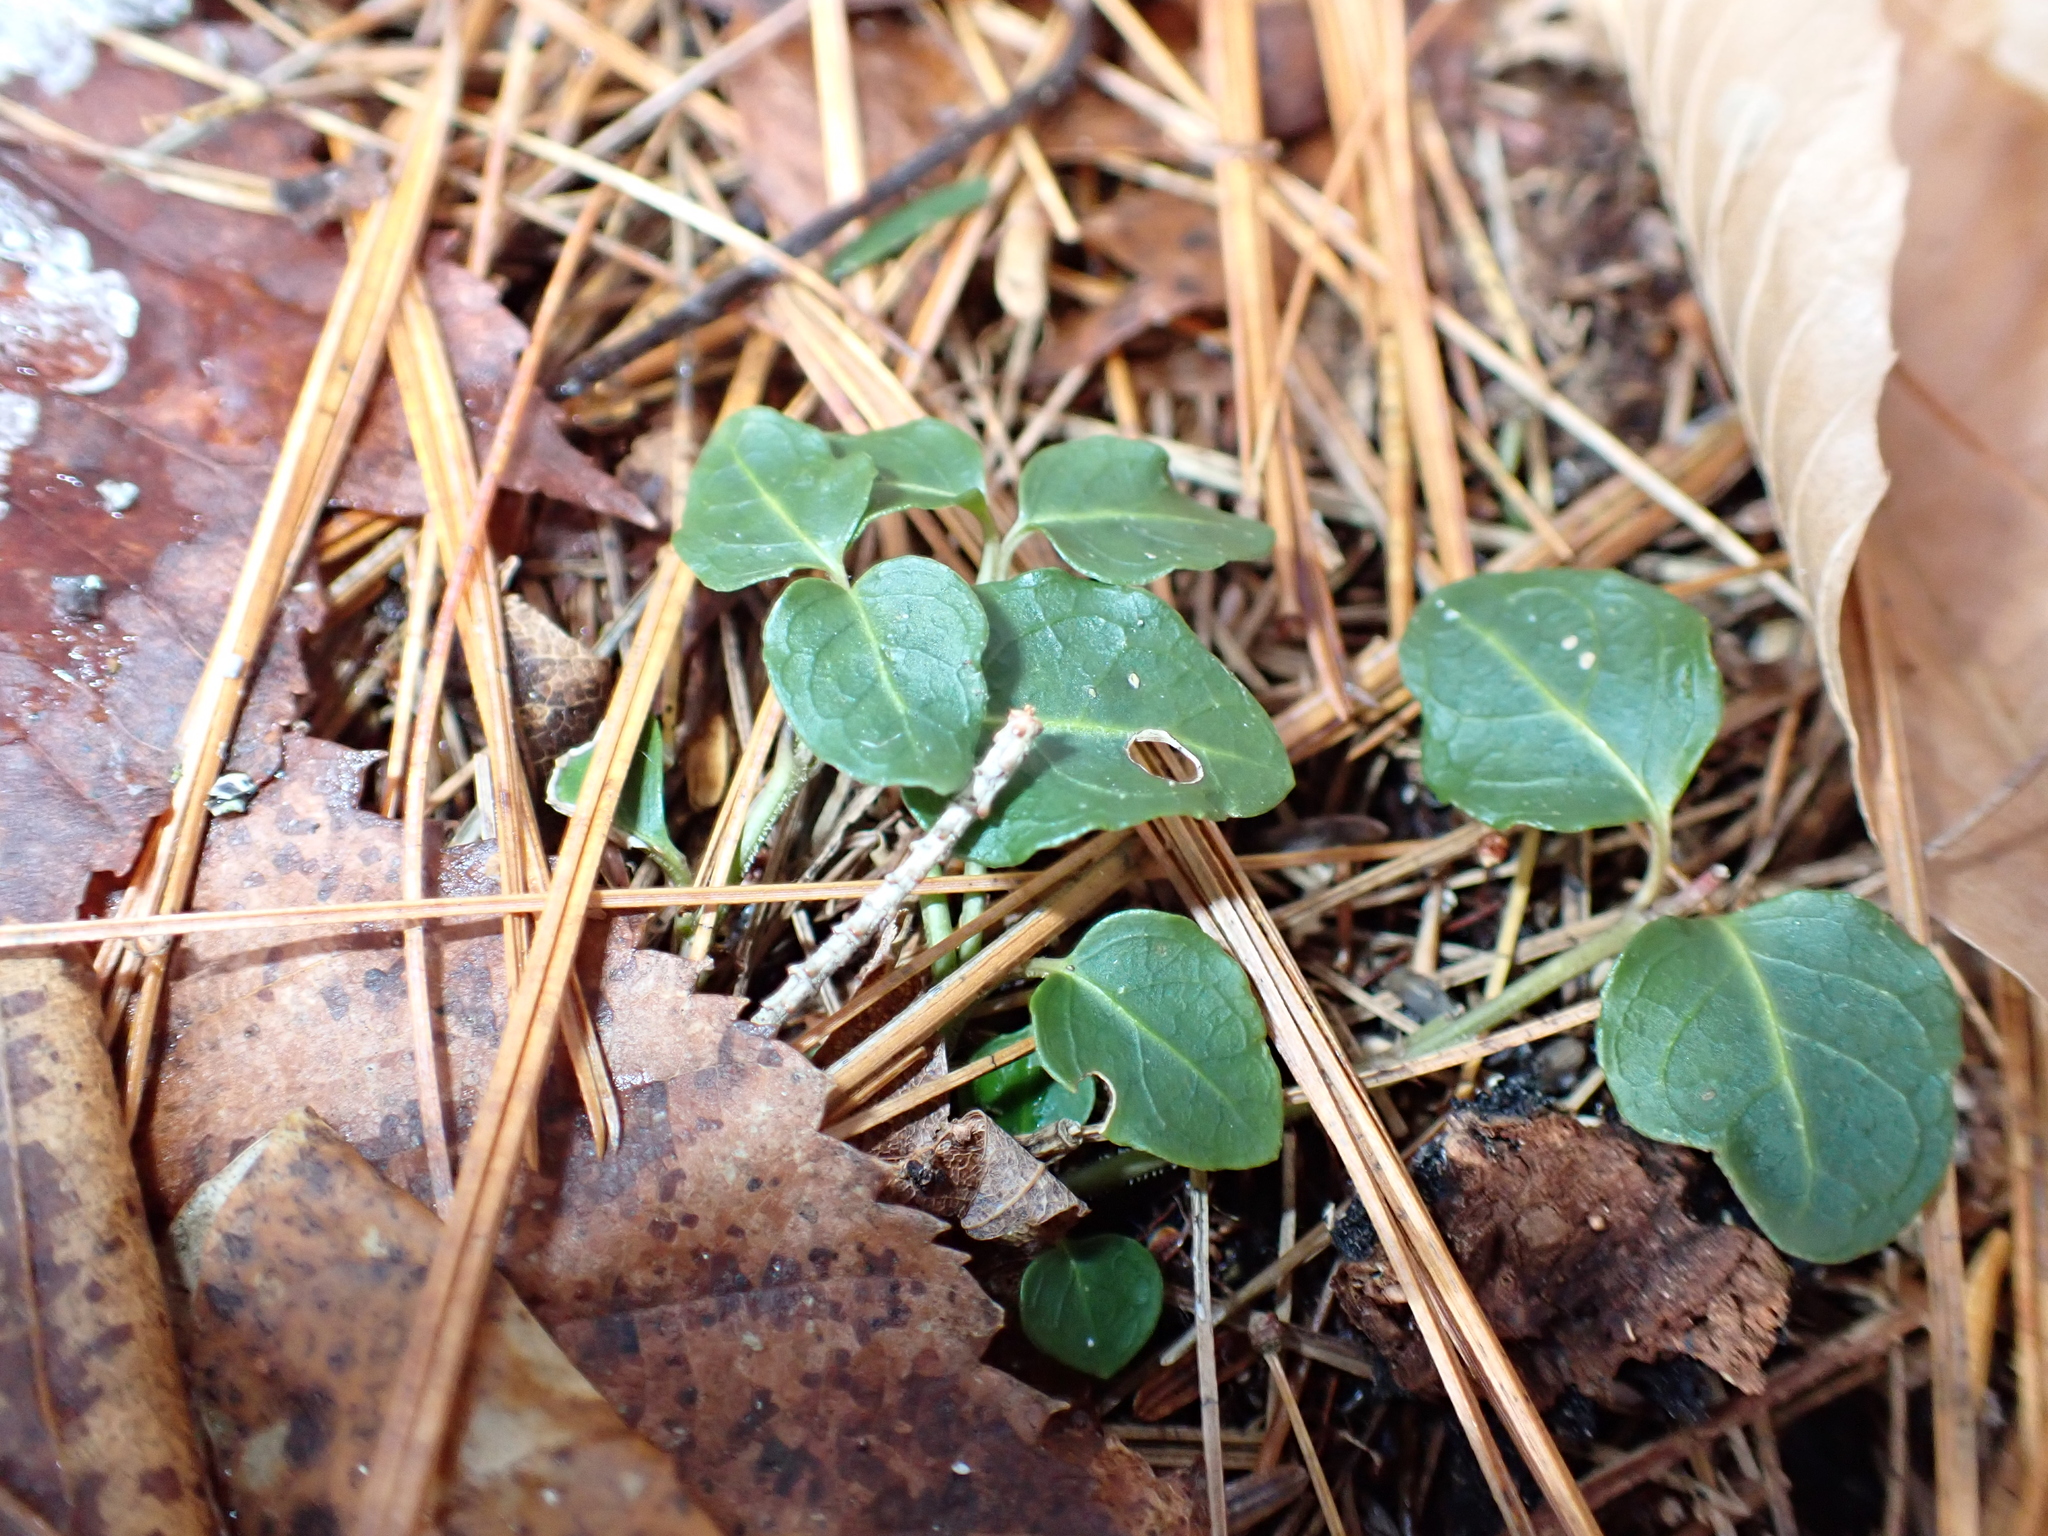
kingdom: Plantae
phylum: Tracheophyta
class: Magnoliopsida
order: Gentianales
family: Rubiaceae
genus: Mitchella
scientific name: Mitchella repens
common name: Partridge-berry
